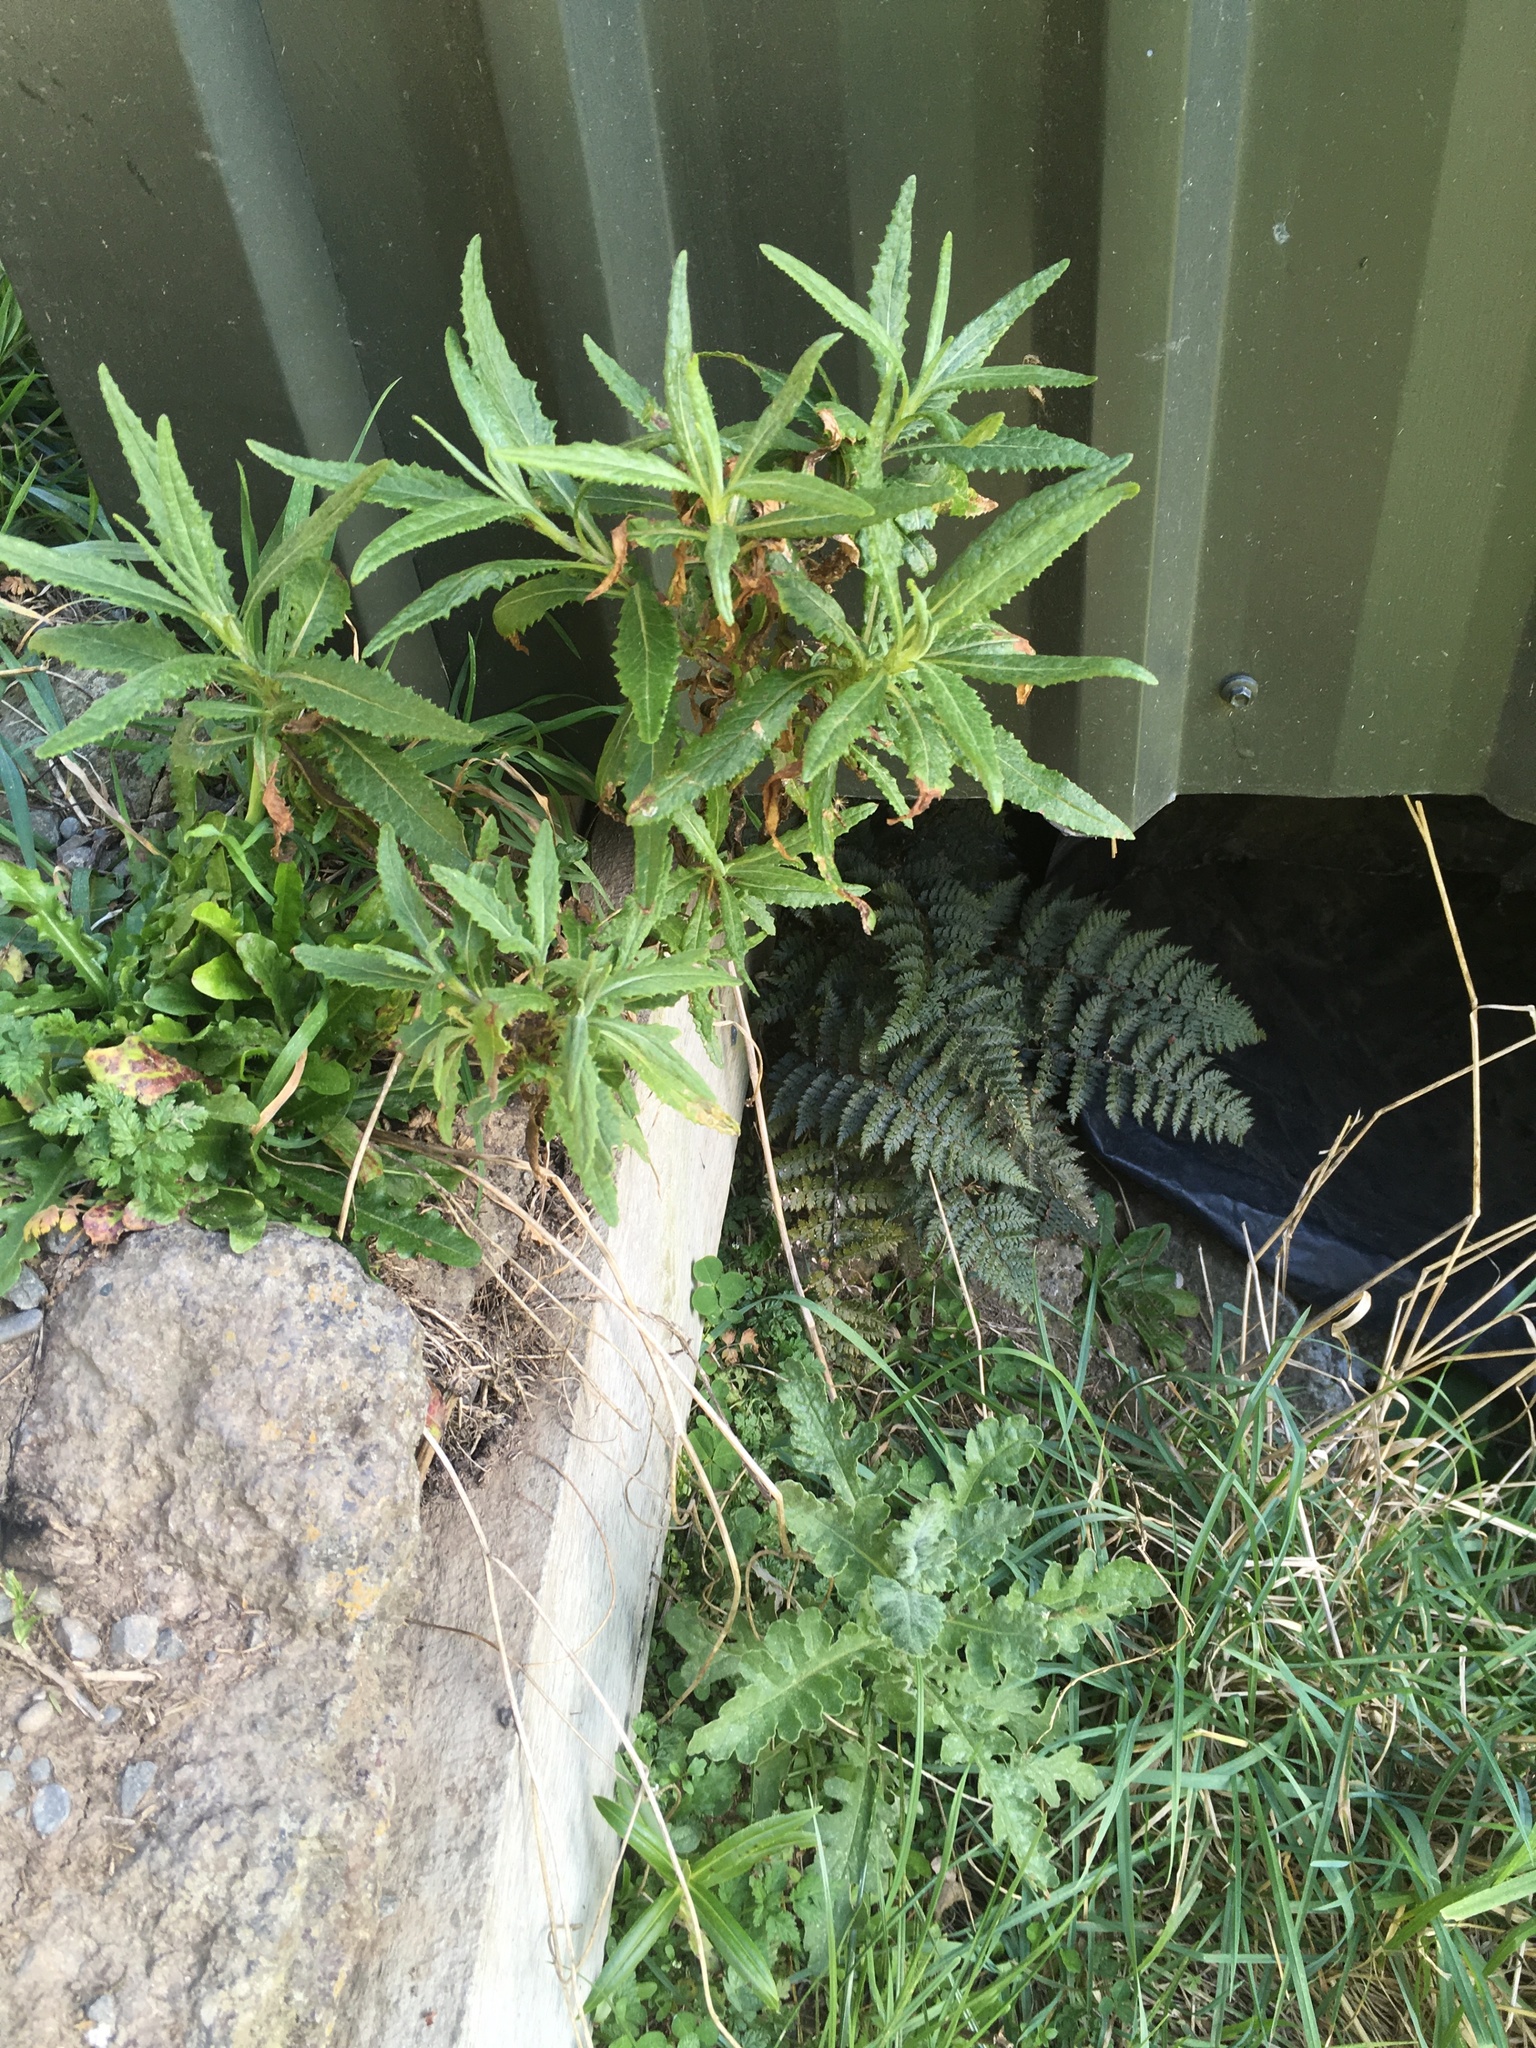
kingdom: Plantae
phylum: Tracheophyta
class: Magnoliopsida
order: Asterales
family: Asteraceae
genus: Senecio
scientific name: Senecio glomeratus
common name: Cutleaf burnweed
